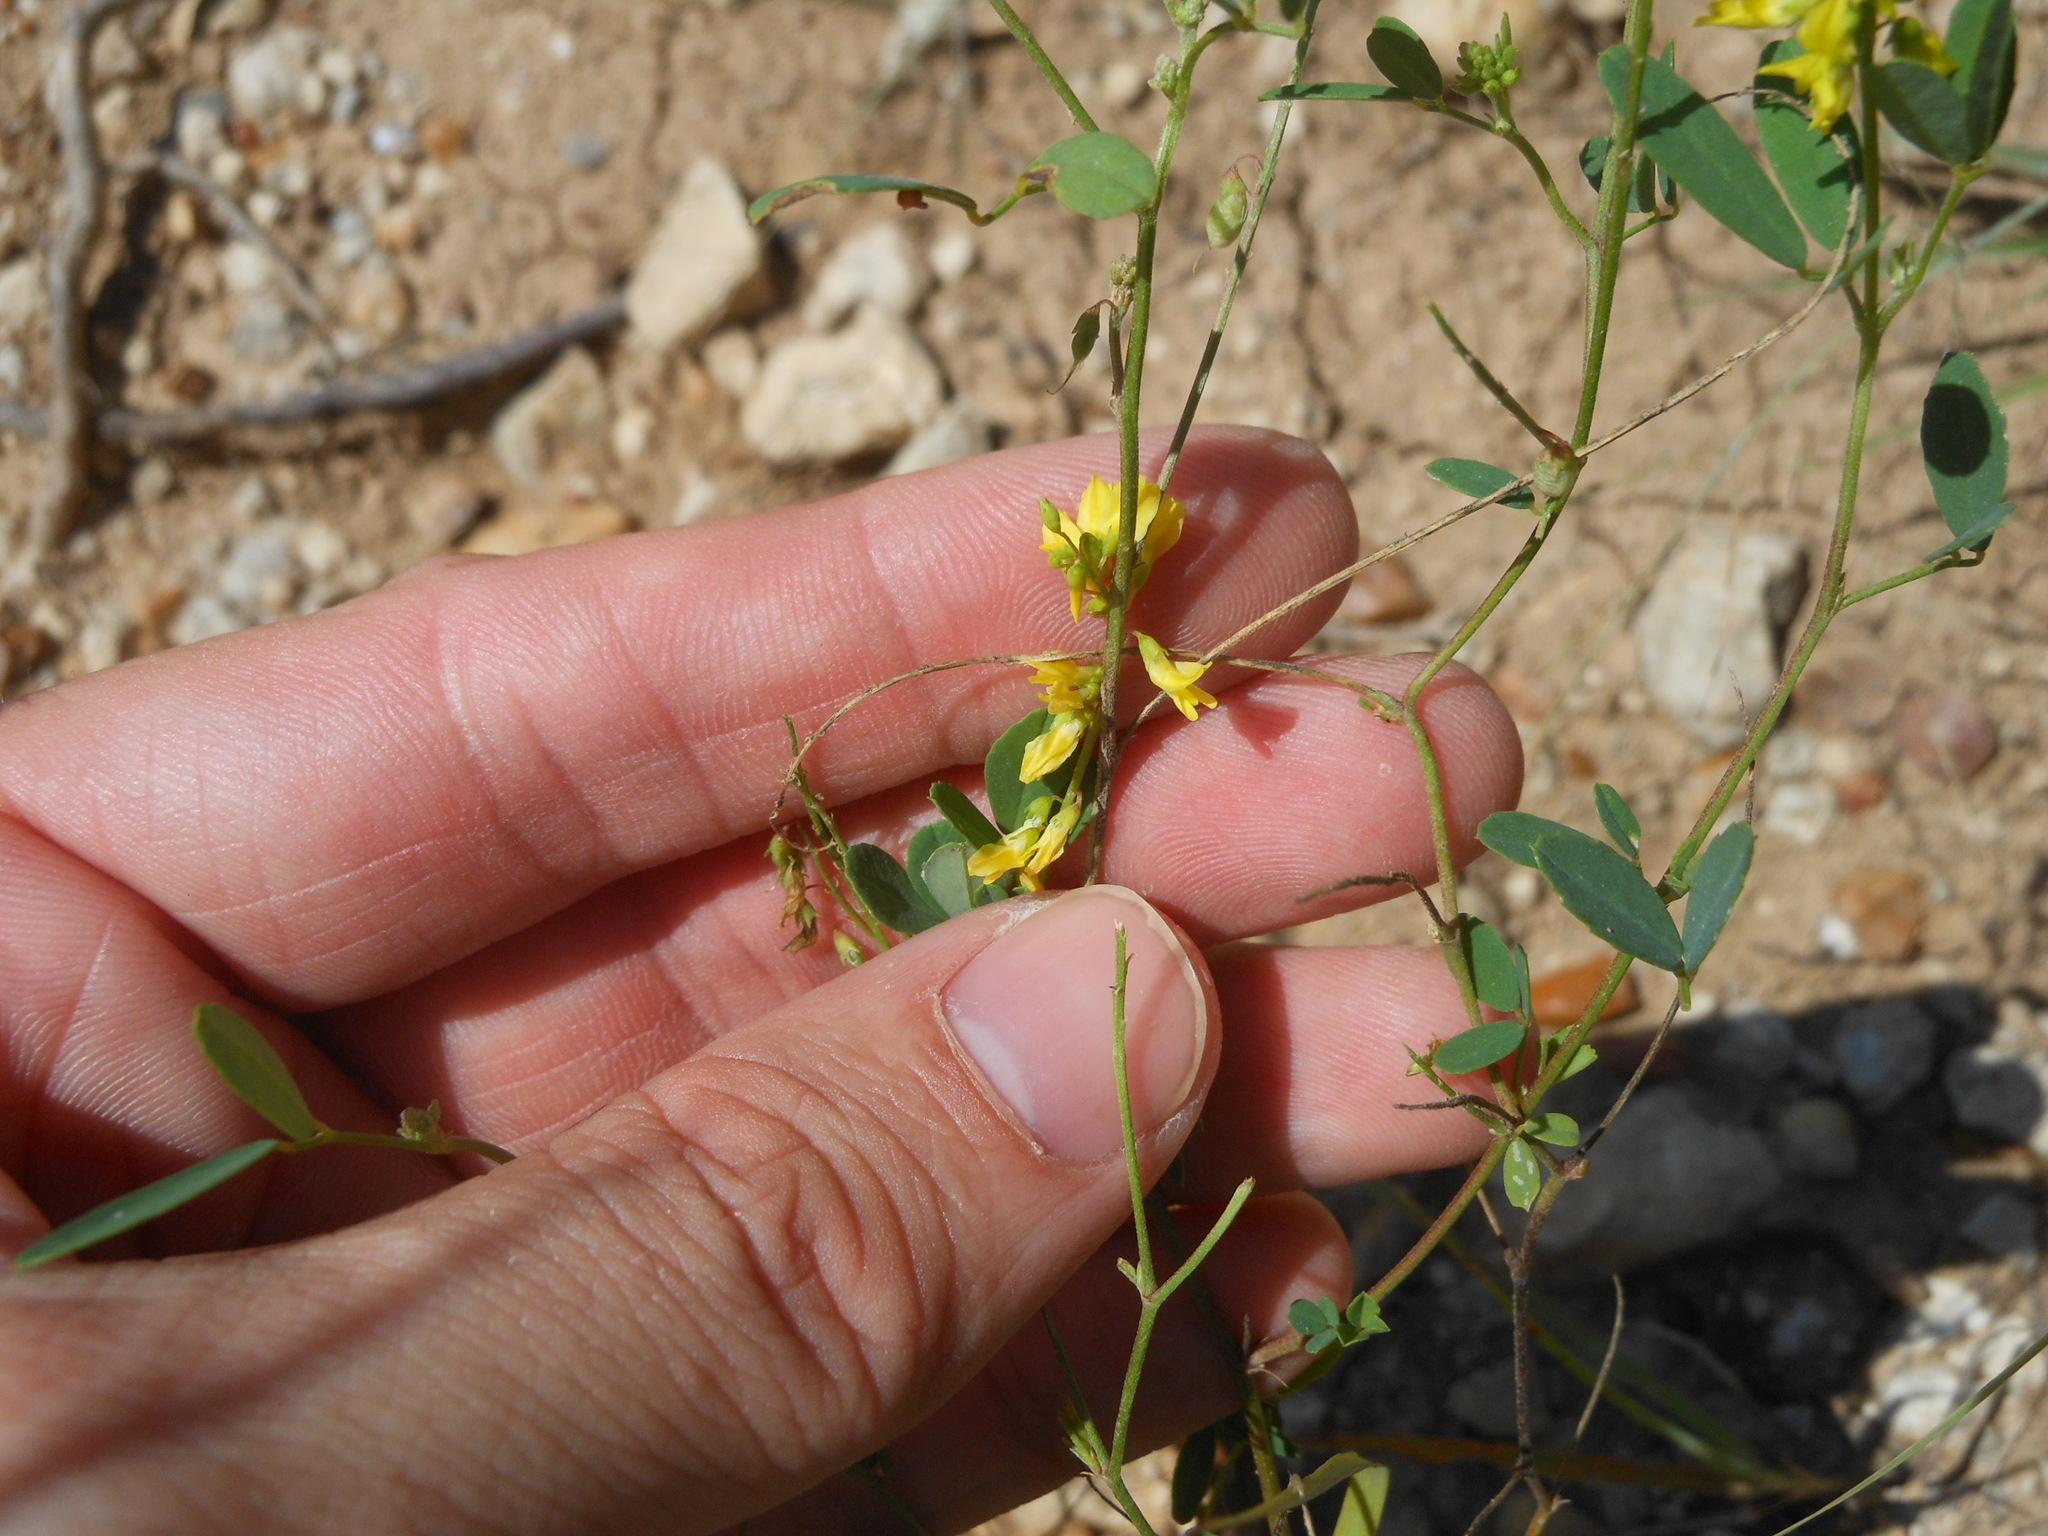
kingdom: Plantae
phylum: Tracheophyta
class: Magnoliopsida
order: Fabales
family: Fabaceae
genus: Melilotus
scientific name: Melilotus officinalis
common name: Sweetclover
